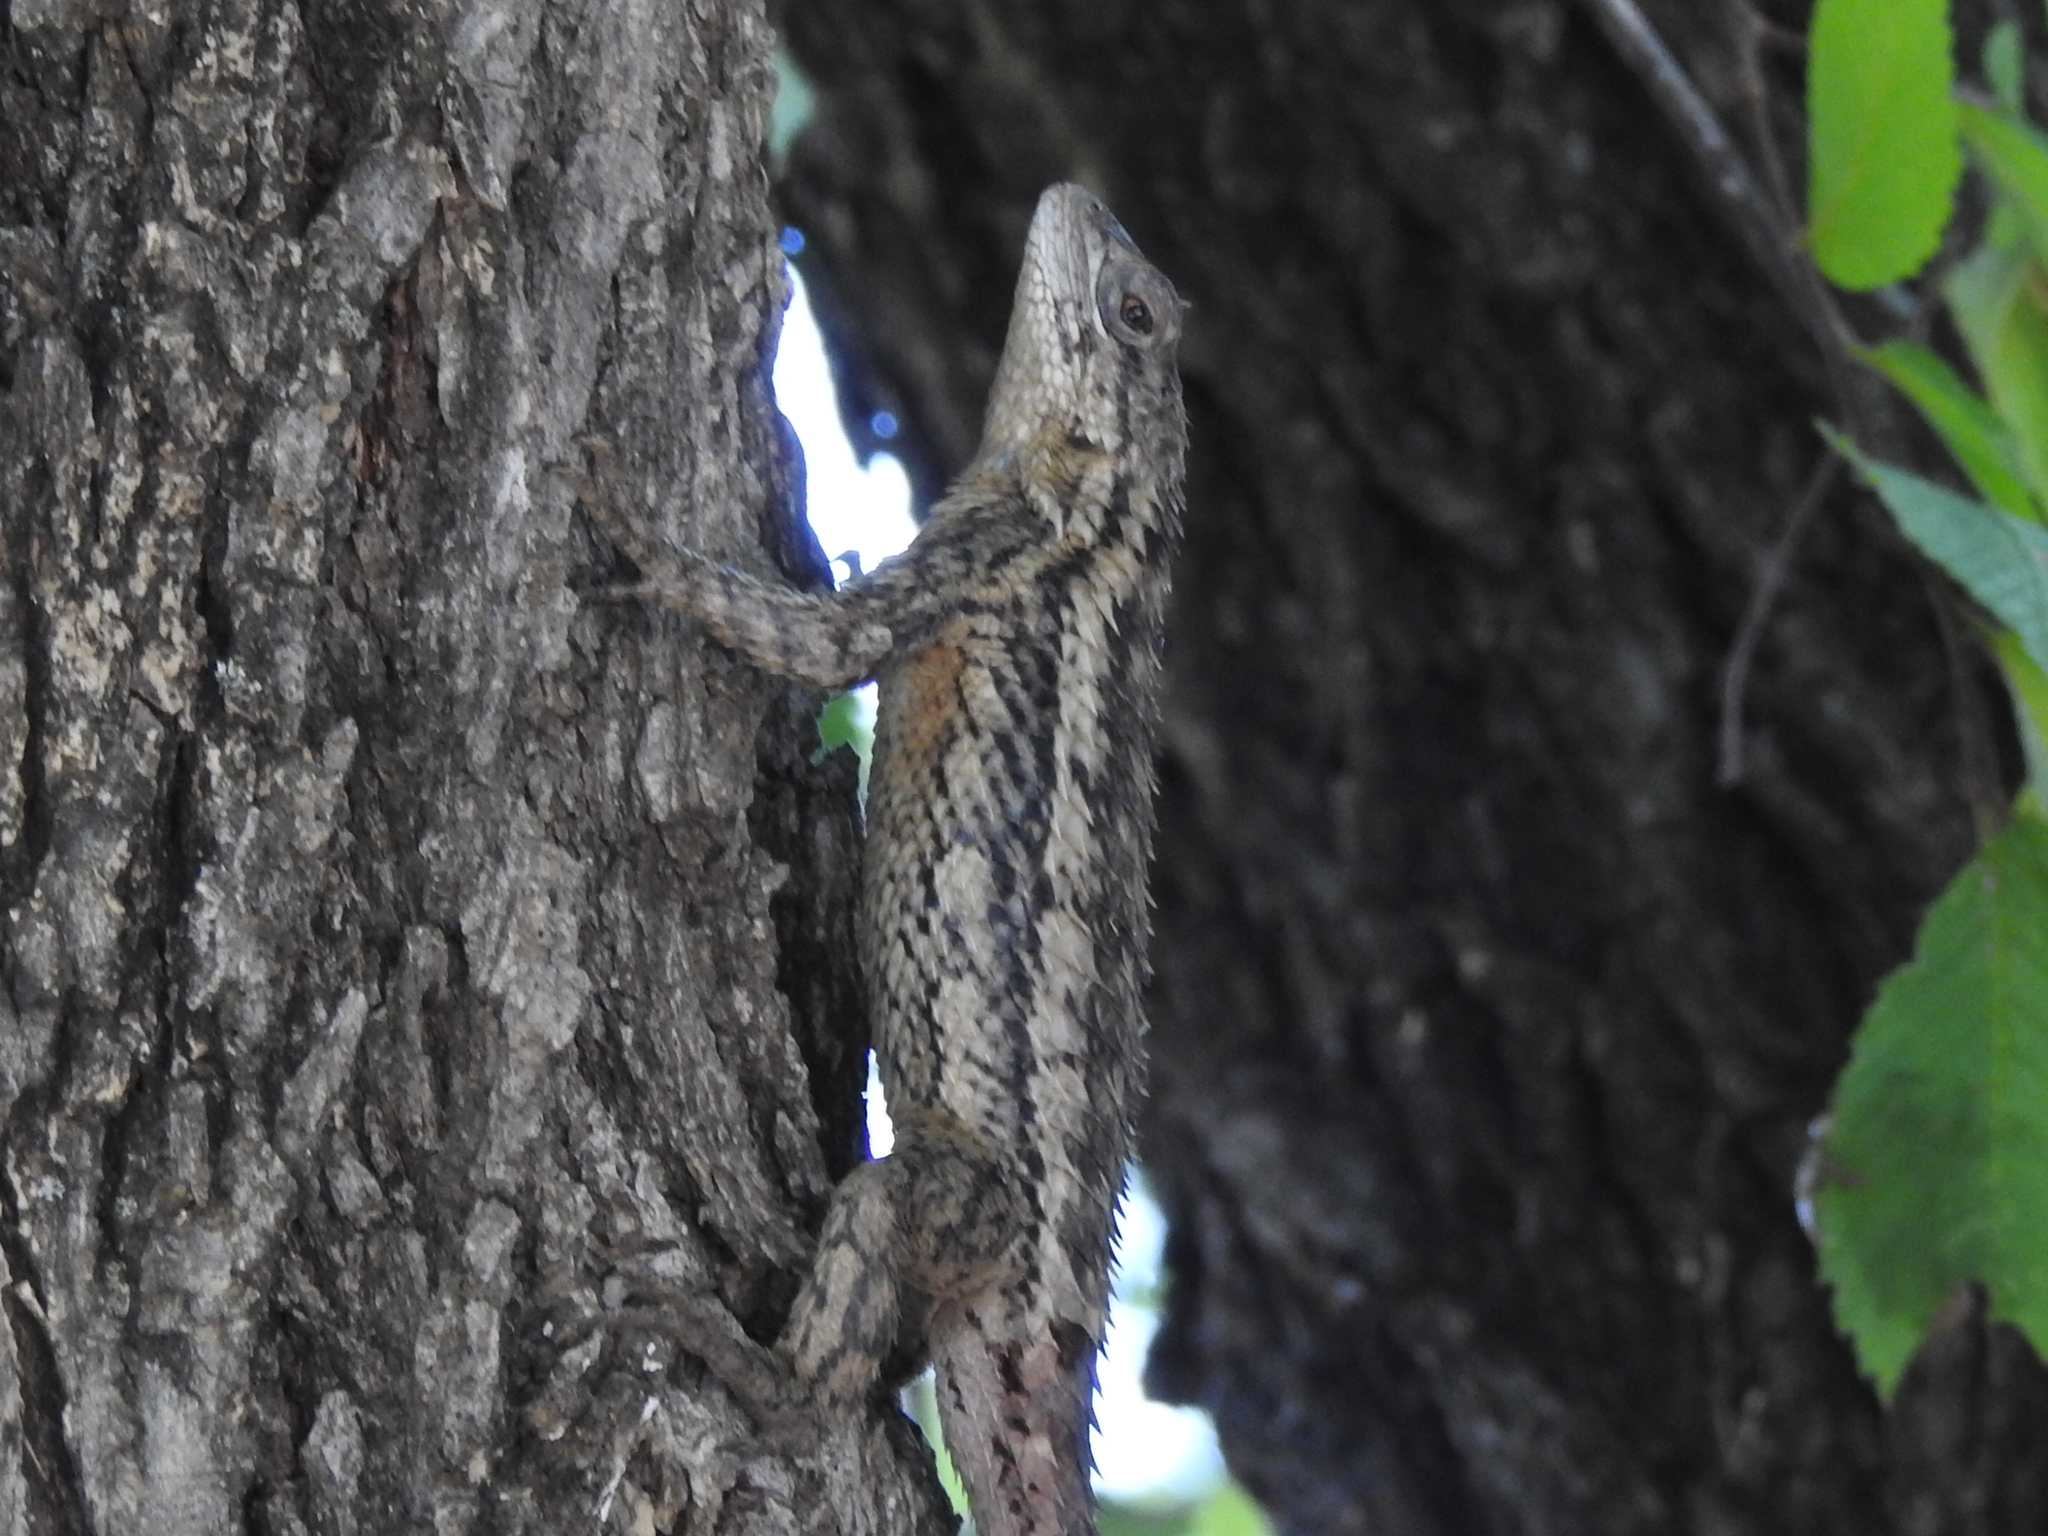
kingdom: Animalia
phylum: Chordata
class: Squamata
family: Phrynosomatidae
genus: Sceloporus
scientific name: Sceloporus olivaceus
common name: Texas spiny lizard
